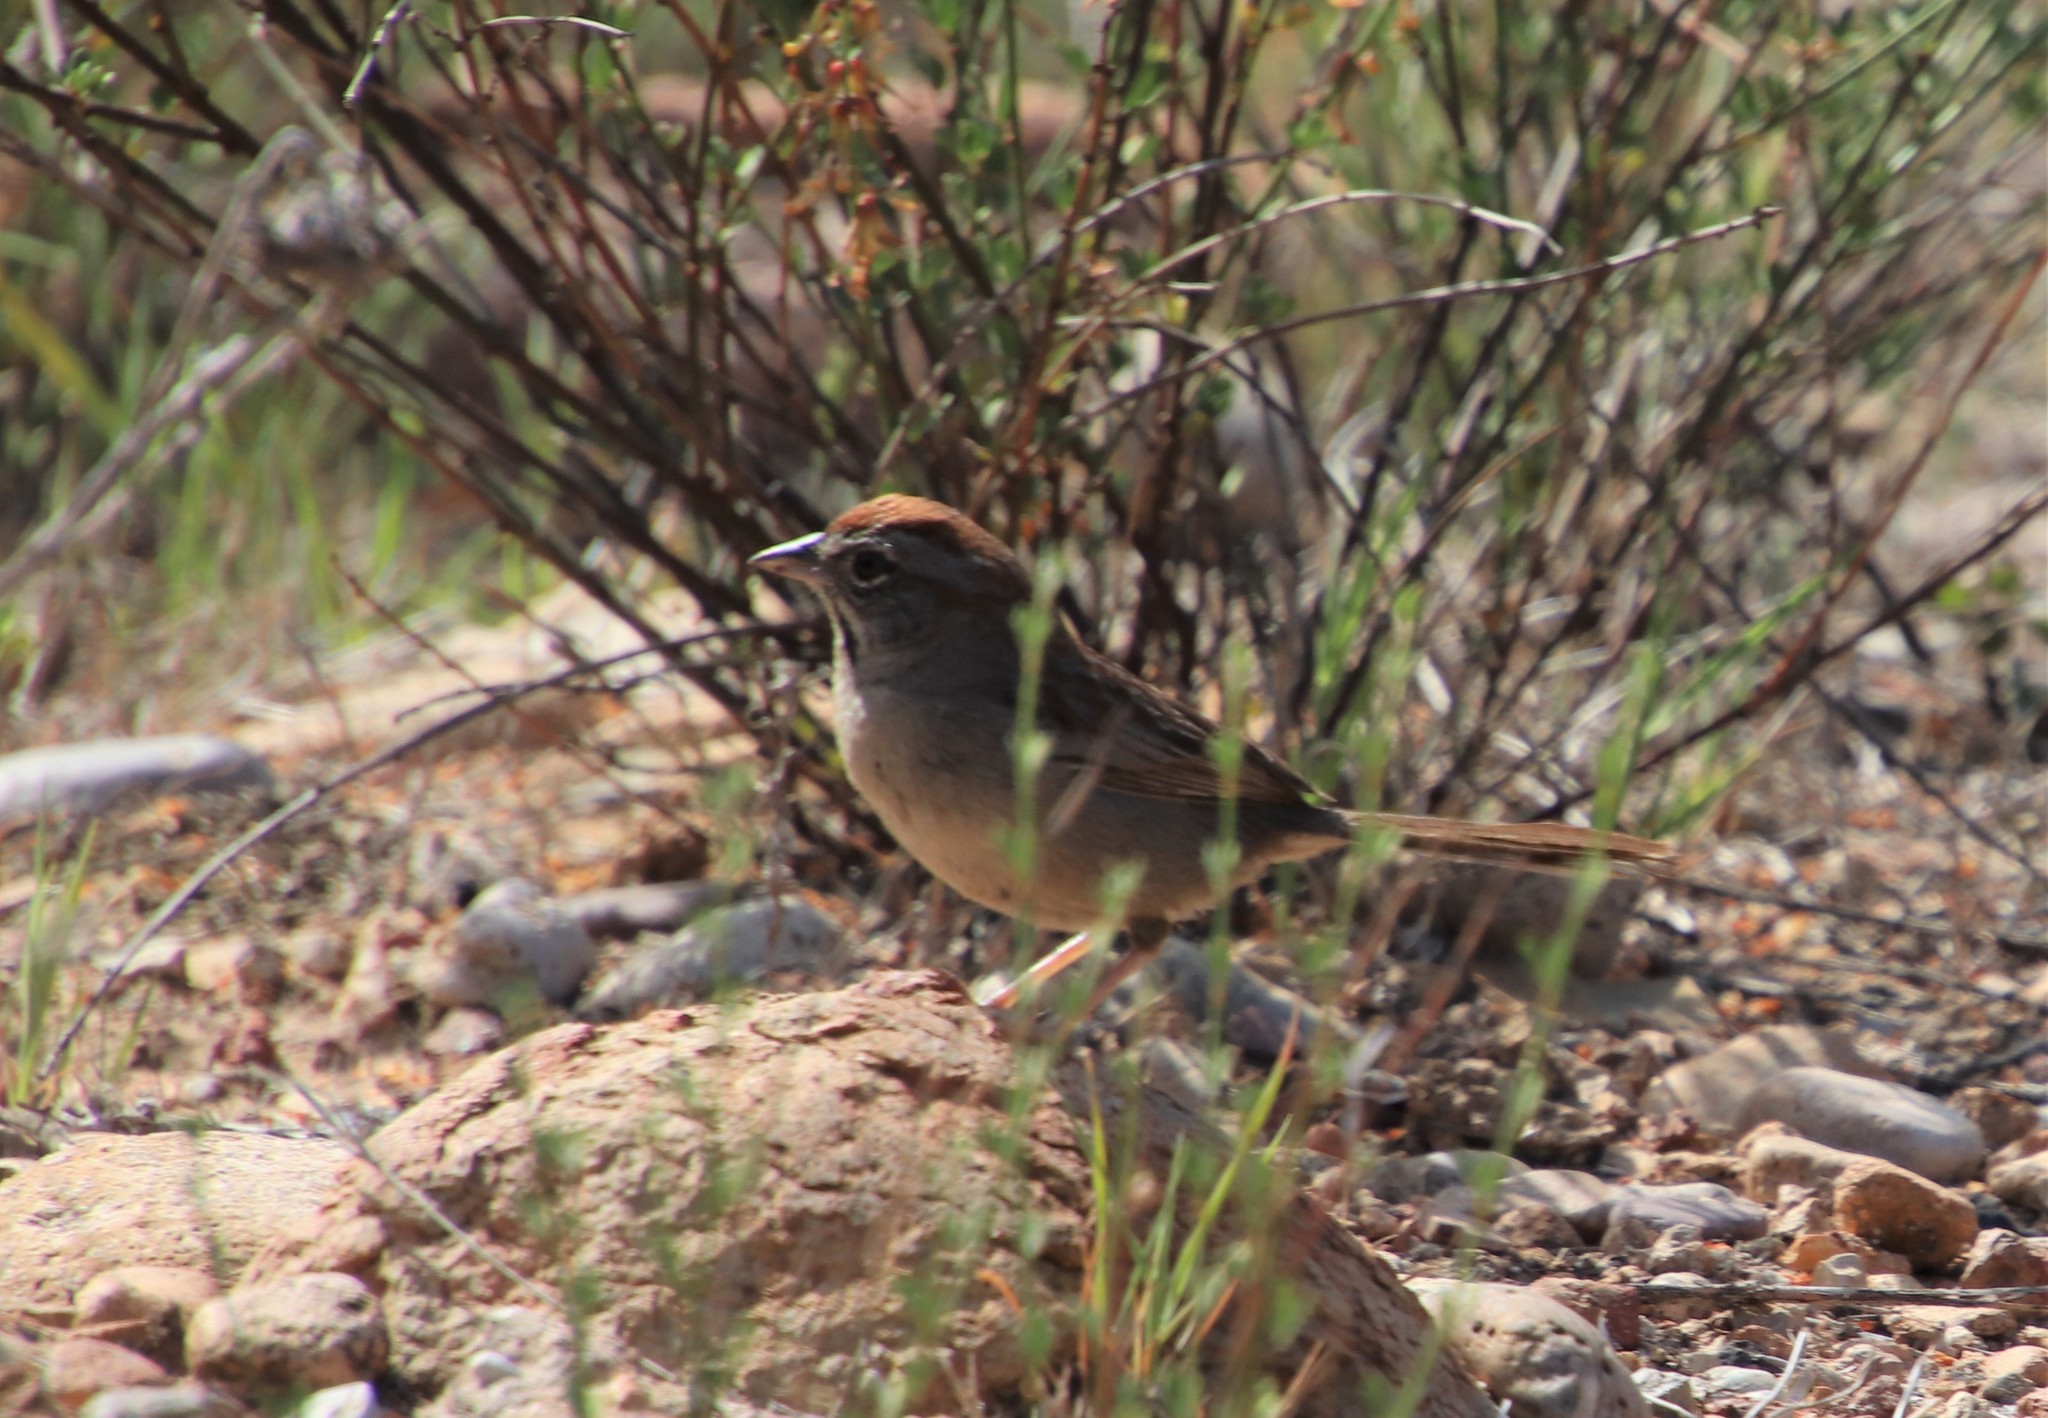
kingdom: Animalia
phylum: Chordata
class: Aves
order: Passeriformes
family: Passerellidae
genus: Aimophila
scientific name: Aimophila ruficeps
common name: Rufous-crowned sparrow
